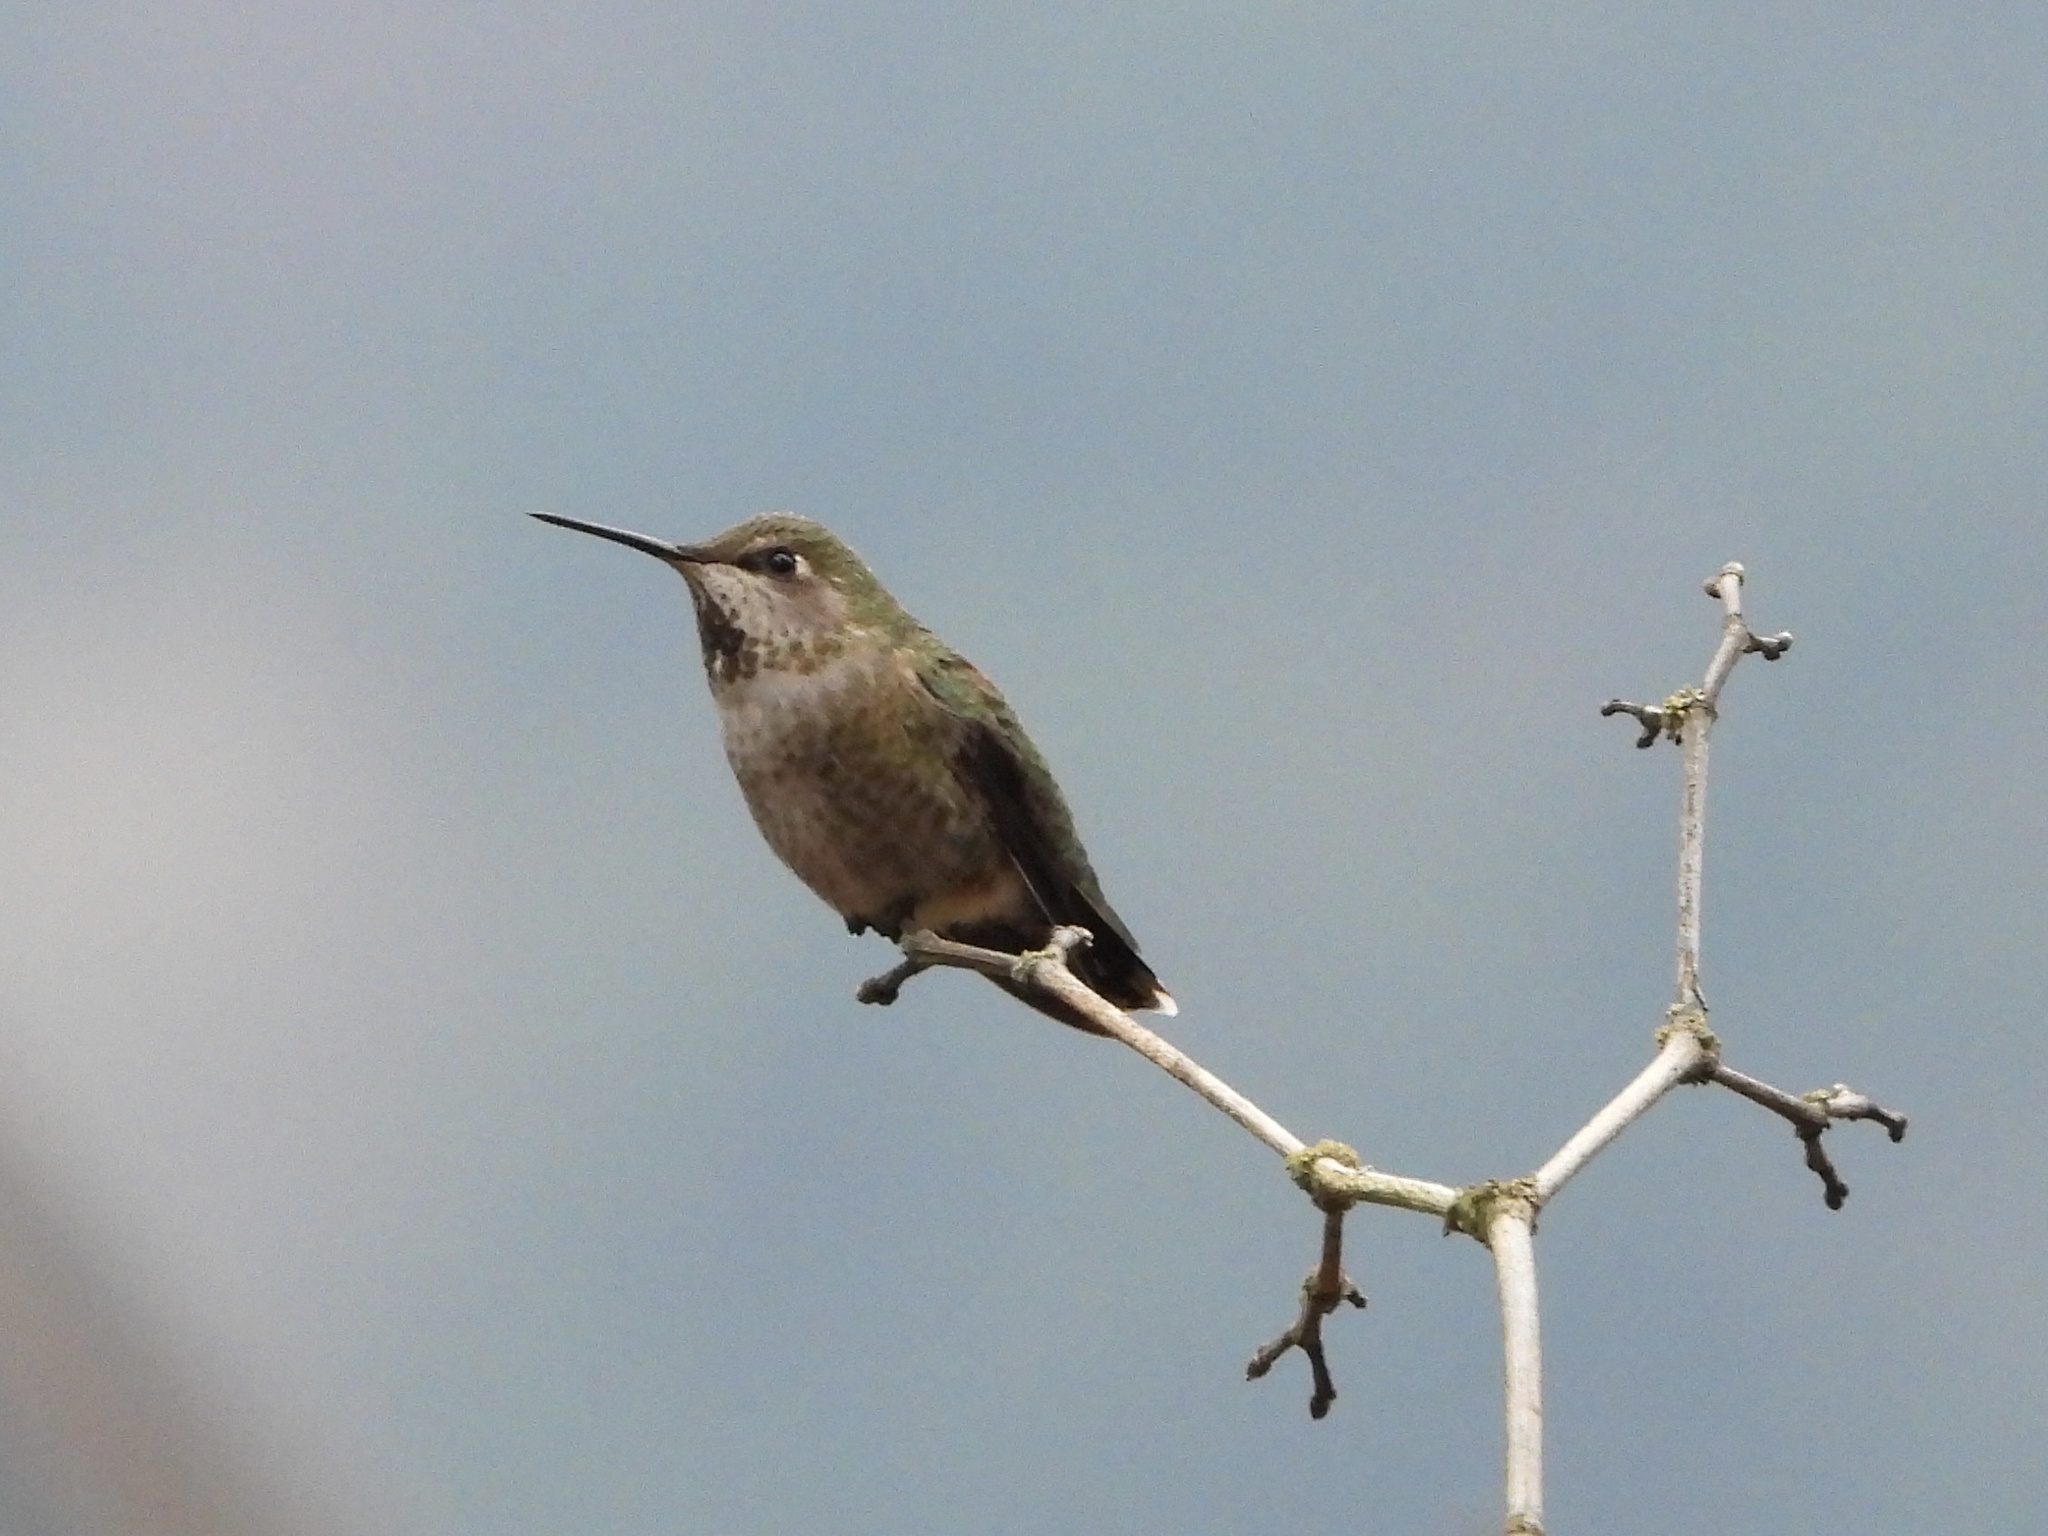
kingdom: Animalia
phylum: Chordata
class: Aves
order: Apodiformes
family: Trochilidae
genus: Calypte
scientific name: Calypte anna
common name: Anna's hummingbird
